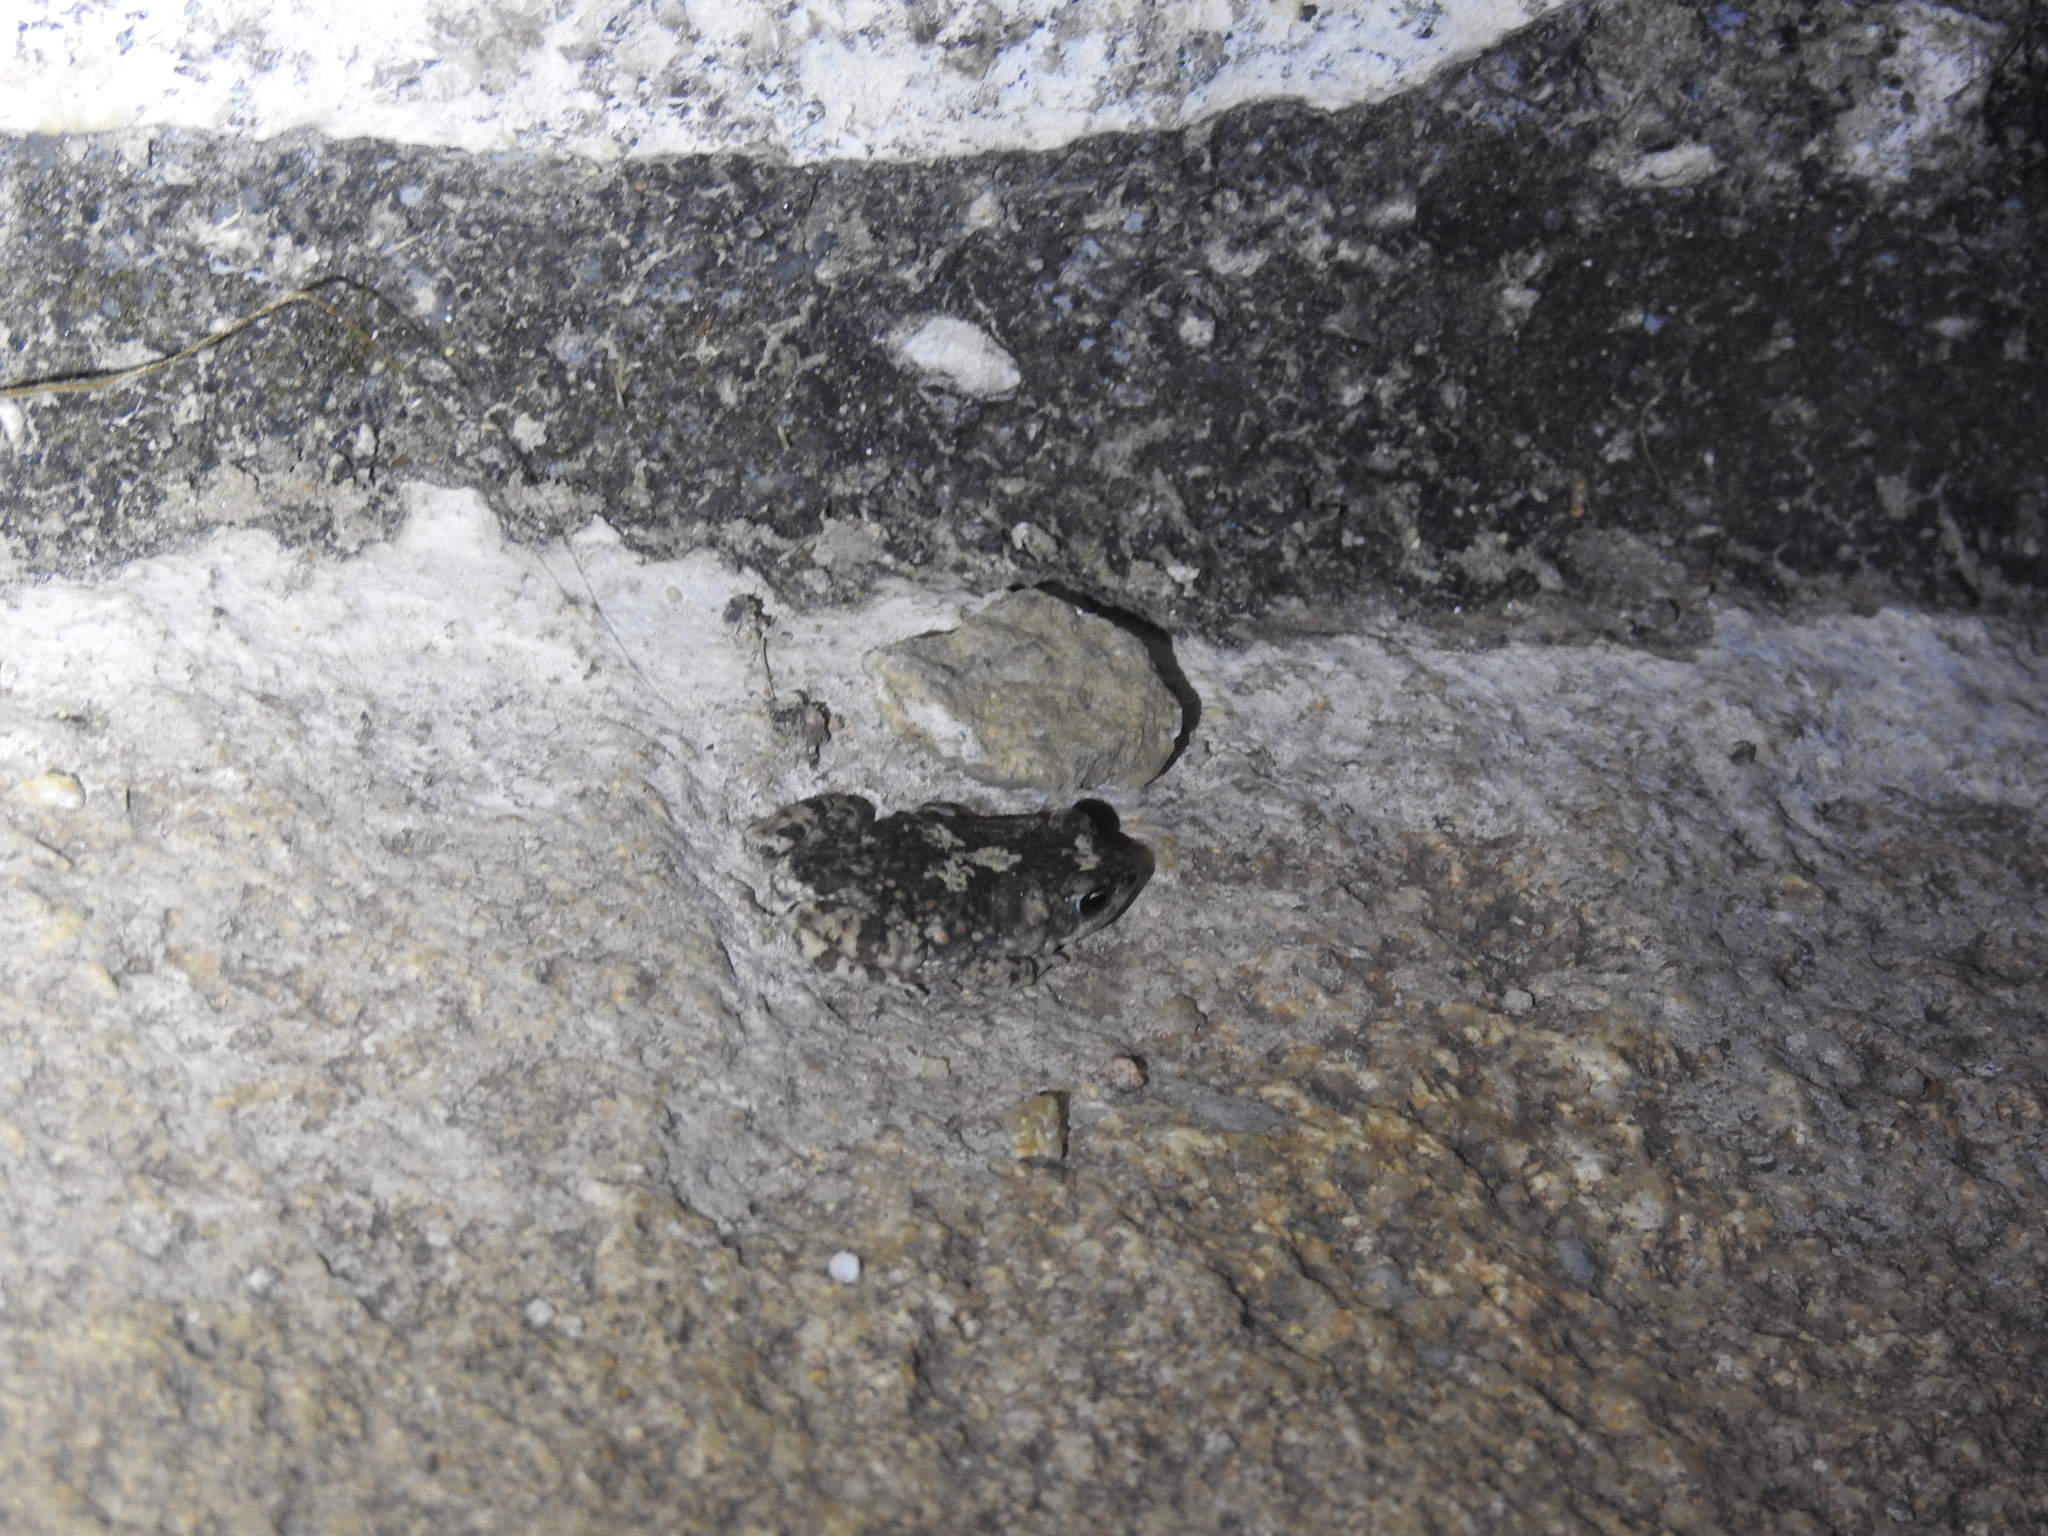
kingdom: Animalia
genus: Firouzophrynus
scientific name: Firouzophrynus
